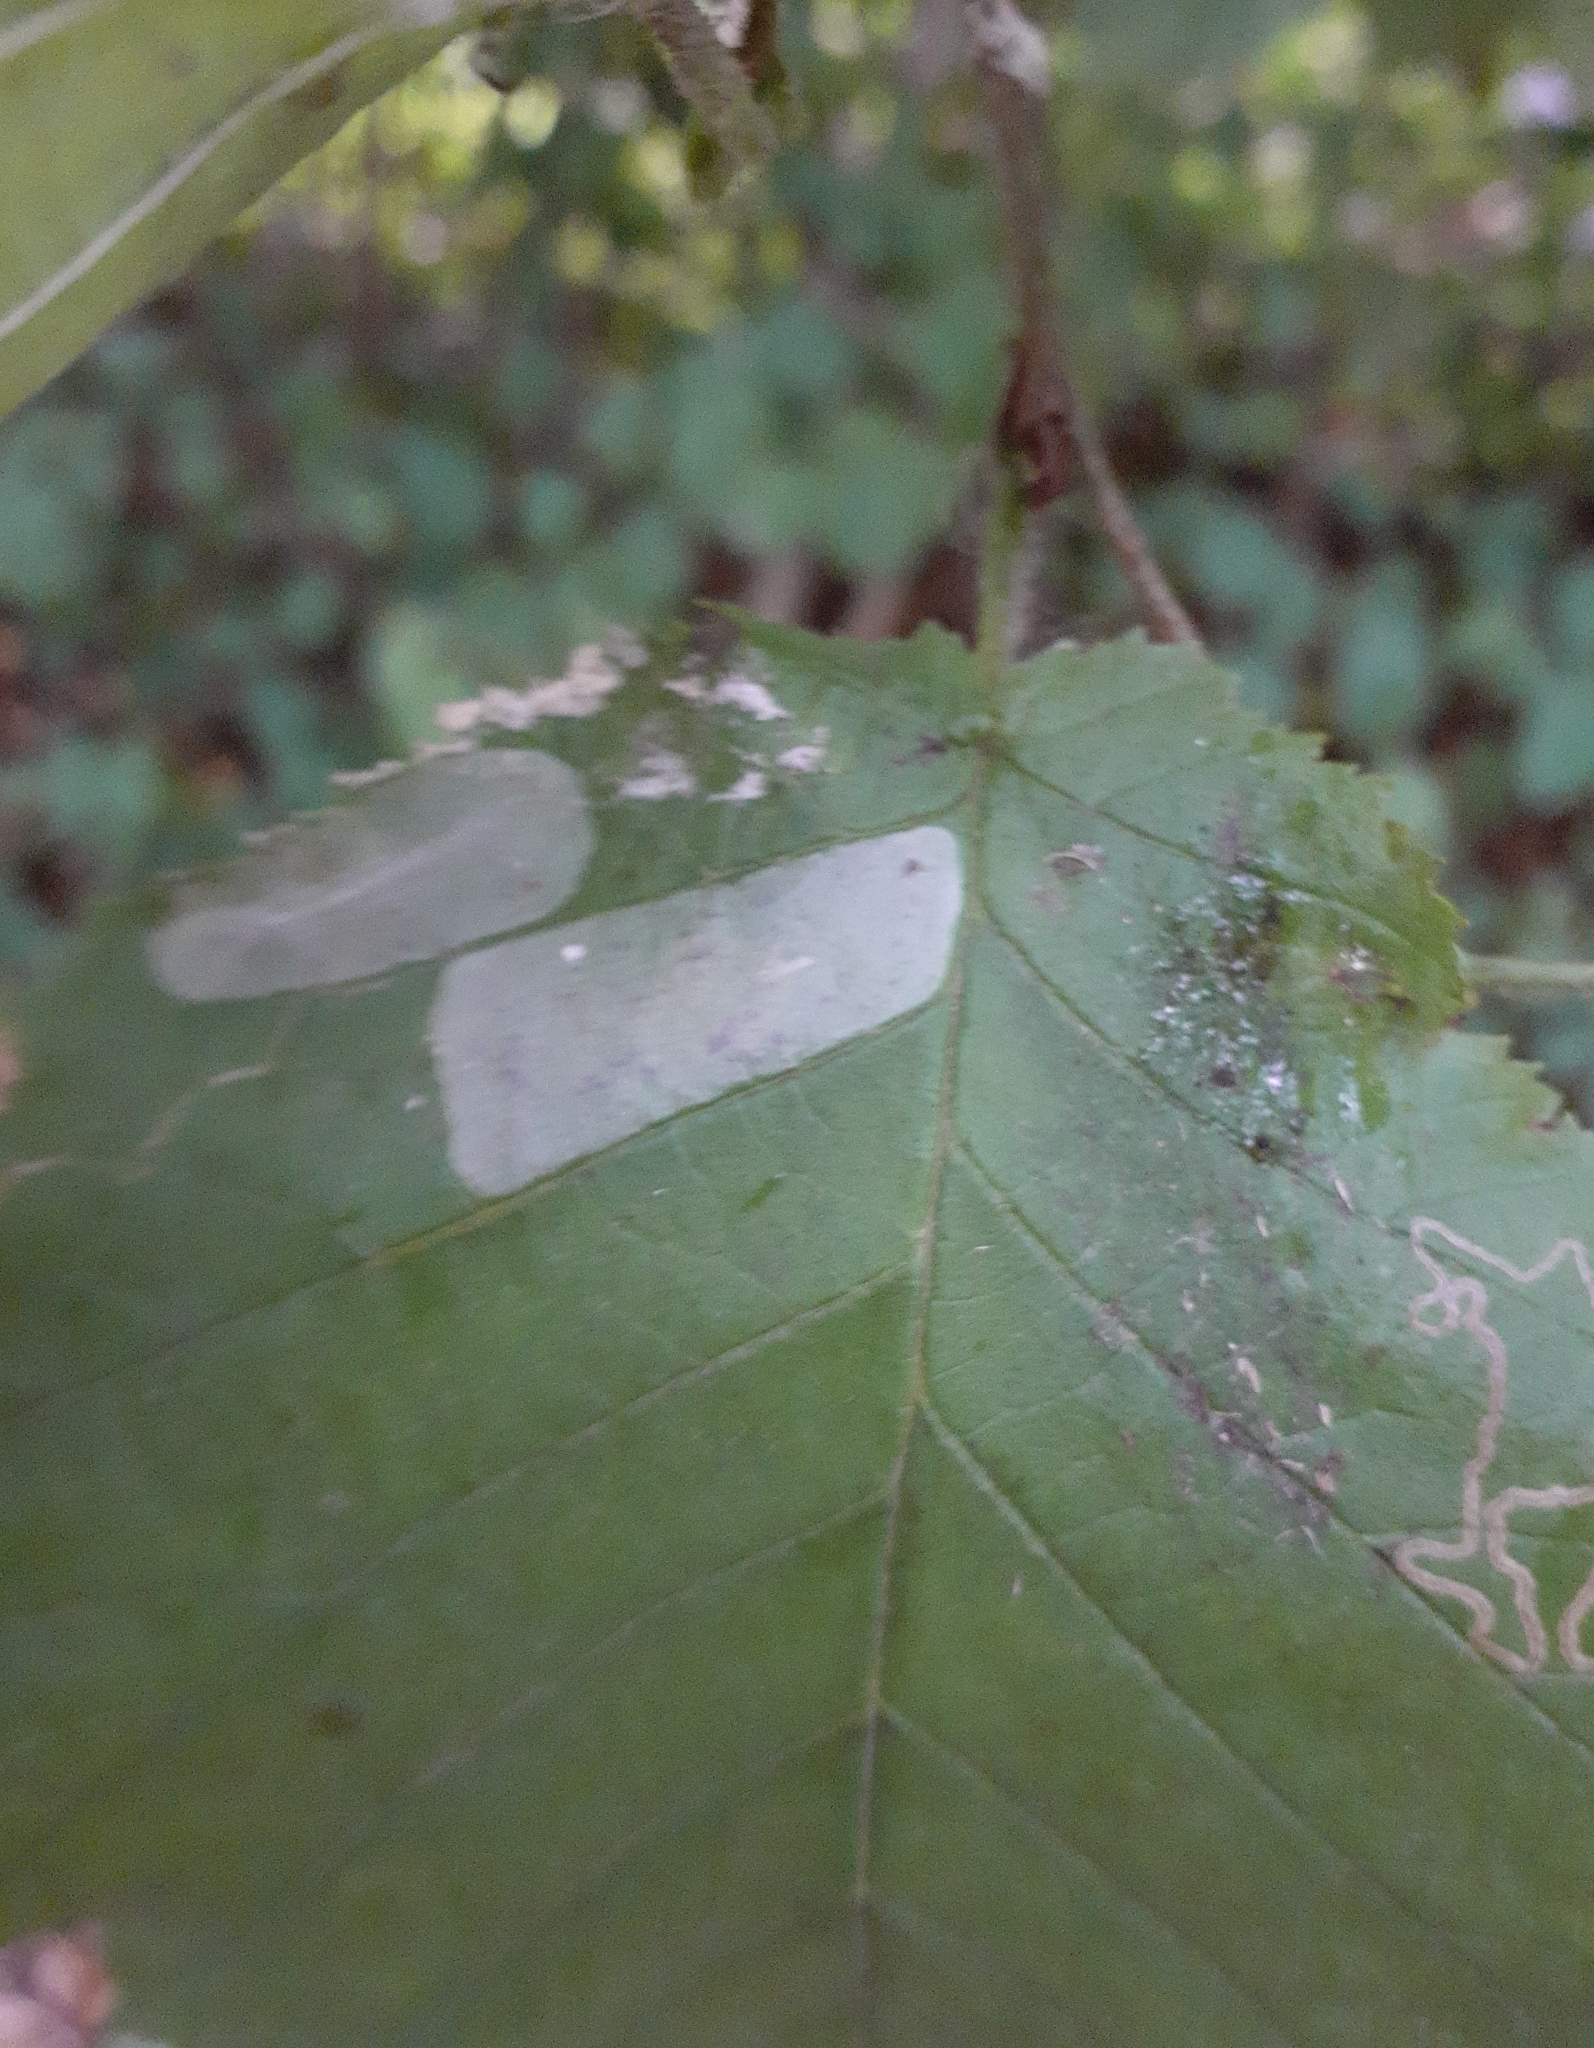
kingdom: Animalia
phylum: Arthropoda
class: Insecta
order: Lepidoptera
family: Gracillariidae
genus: Phyllonorycter
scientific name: Phyllonorycter coryli
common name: Nut-leaf blister moth
